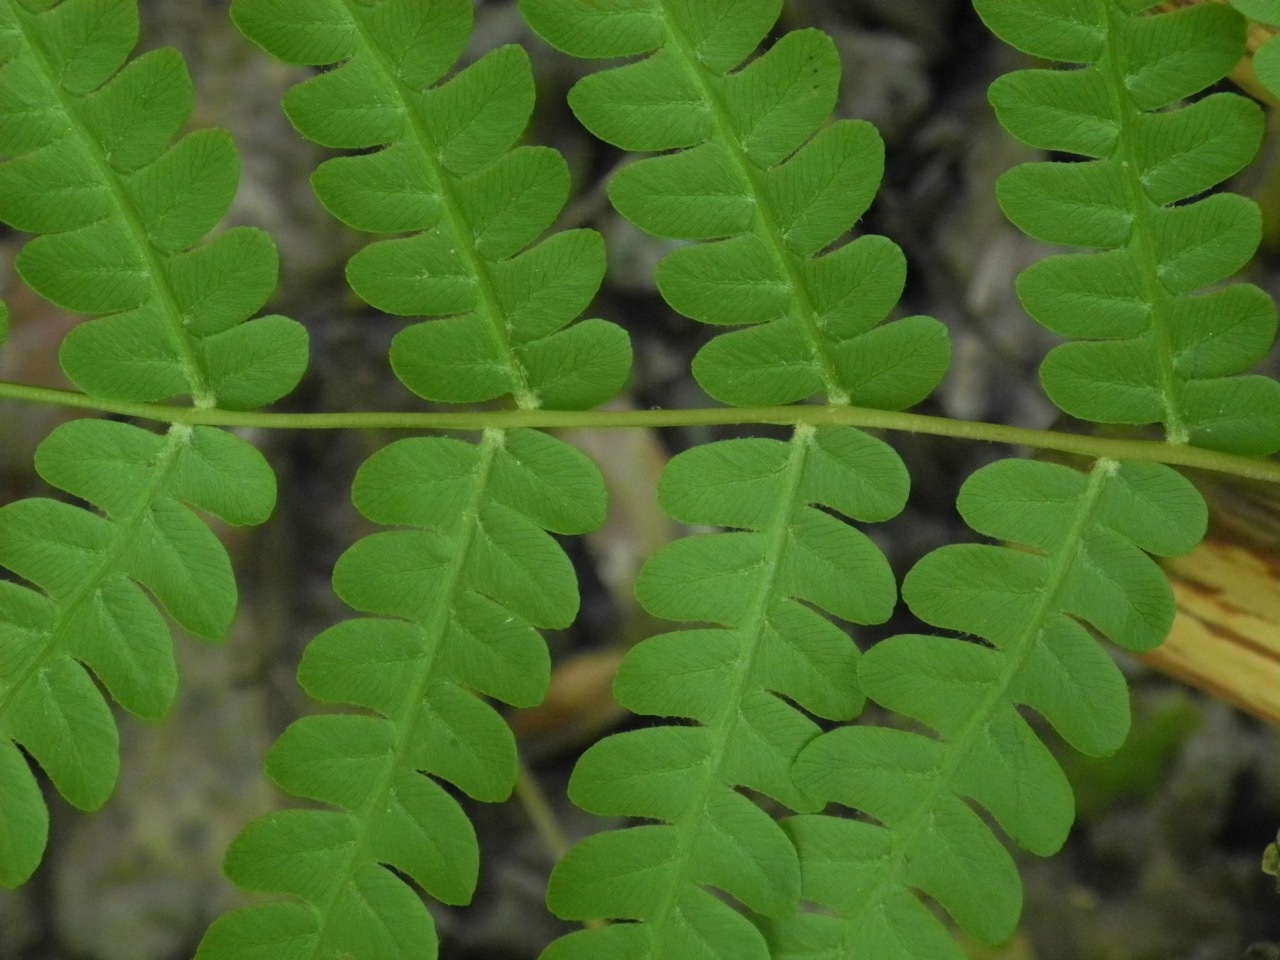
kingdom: Plantae
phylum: Tracheophyta
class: Polypodiopsida
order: Osmundales
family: Osmundaceae
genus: Osmundastrum
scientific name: Osmundastrum cinnamomeum
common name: Cinnamon fern
